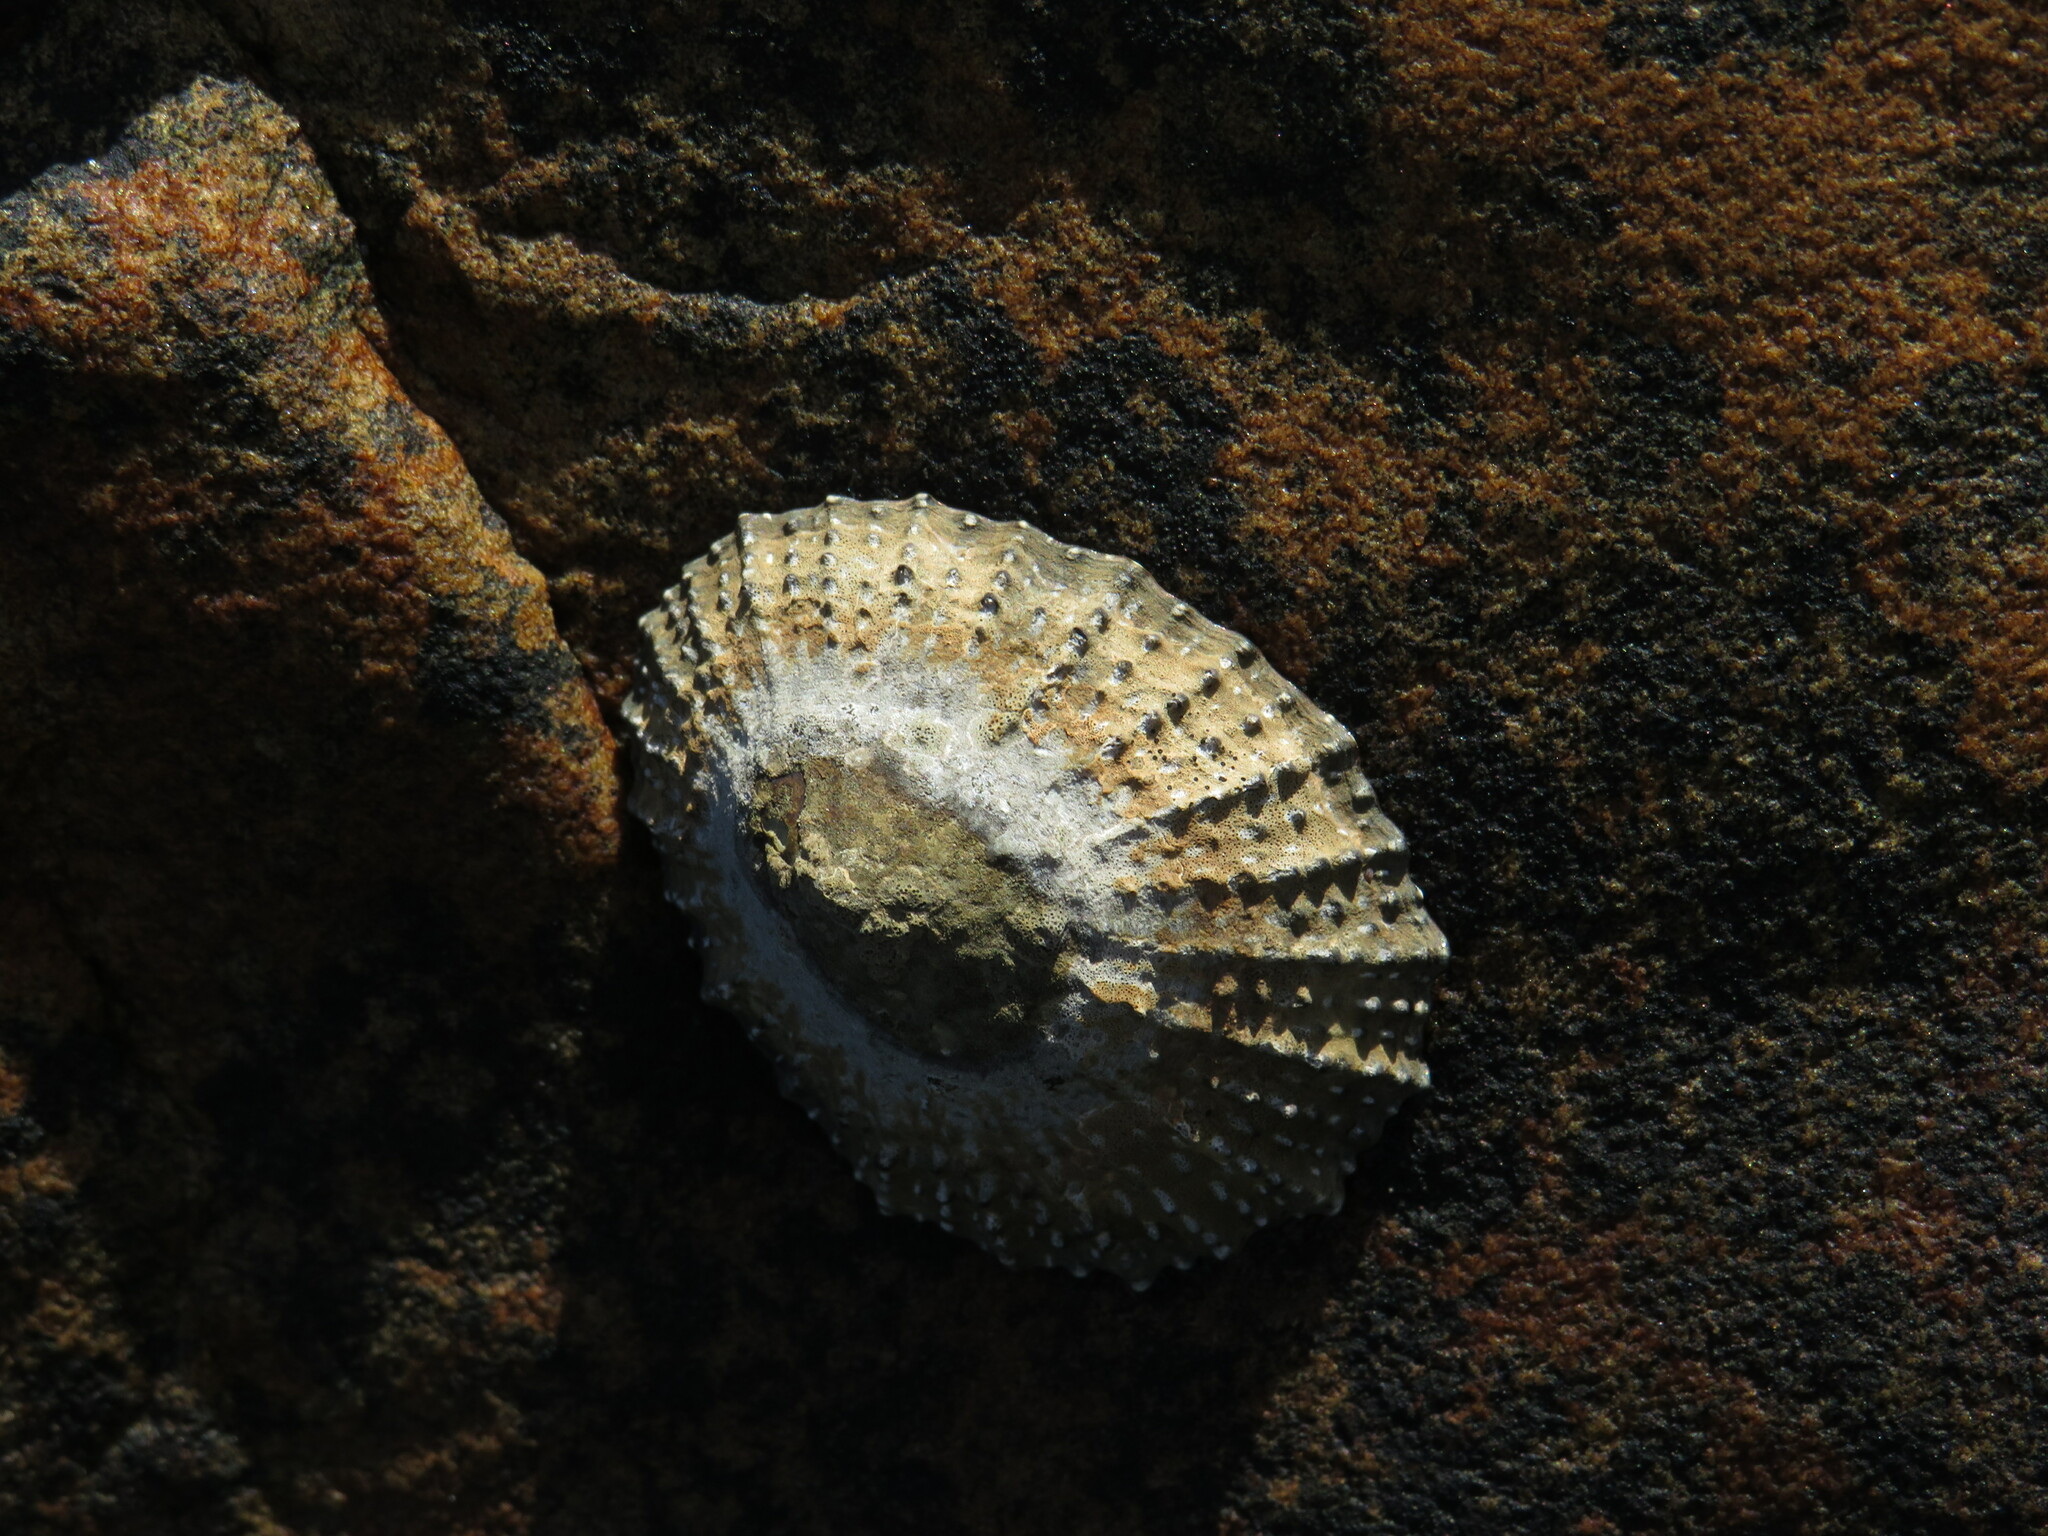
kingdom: Animalia
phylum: Mollusca
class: Gastropoda
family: Patellidae
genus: Scutellastra
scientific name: Scutellastra granularis
